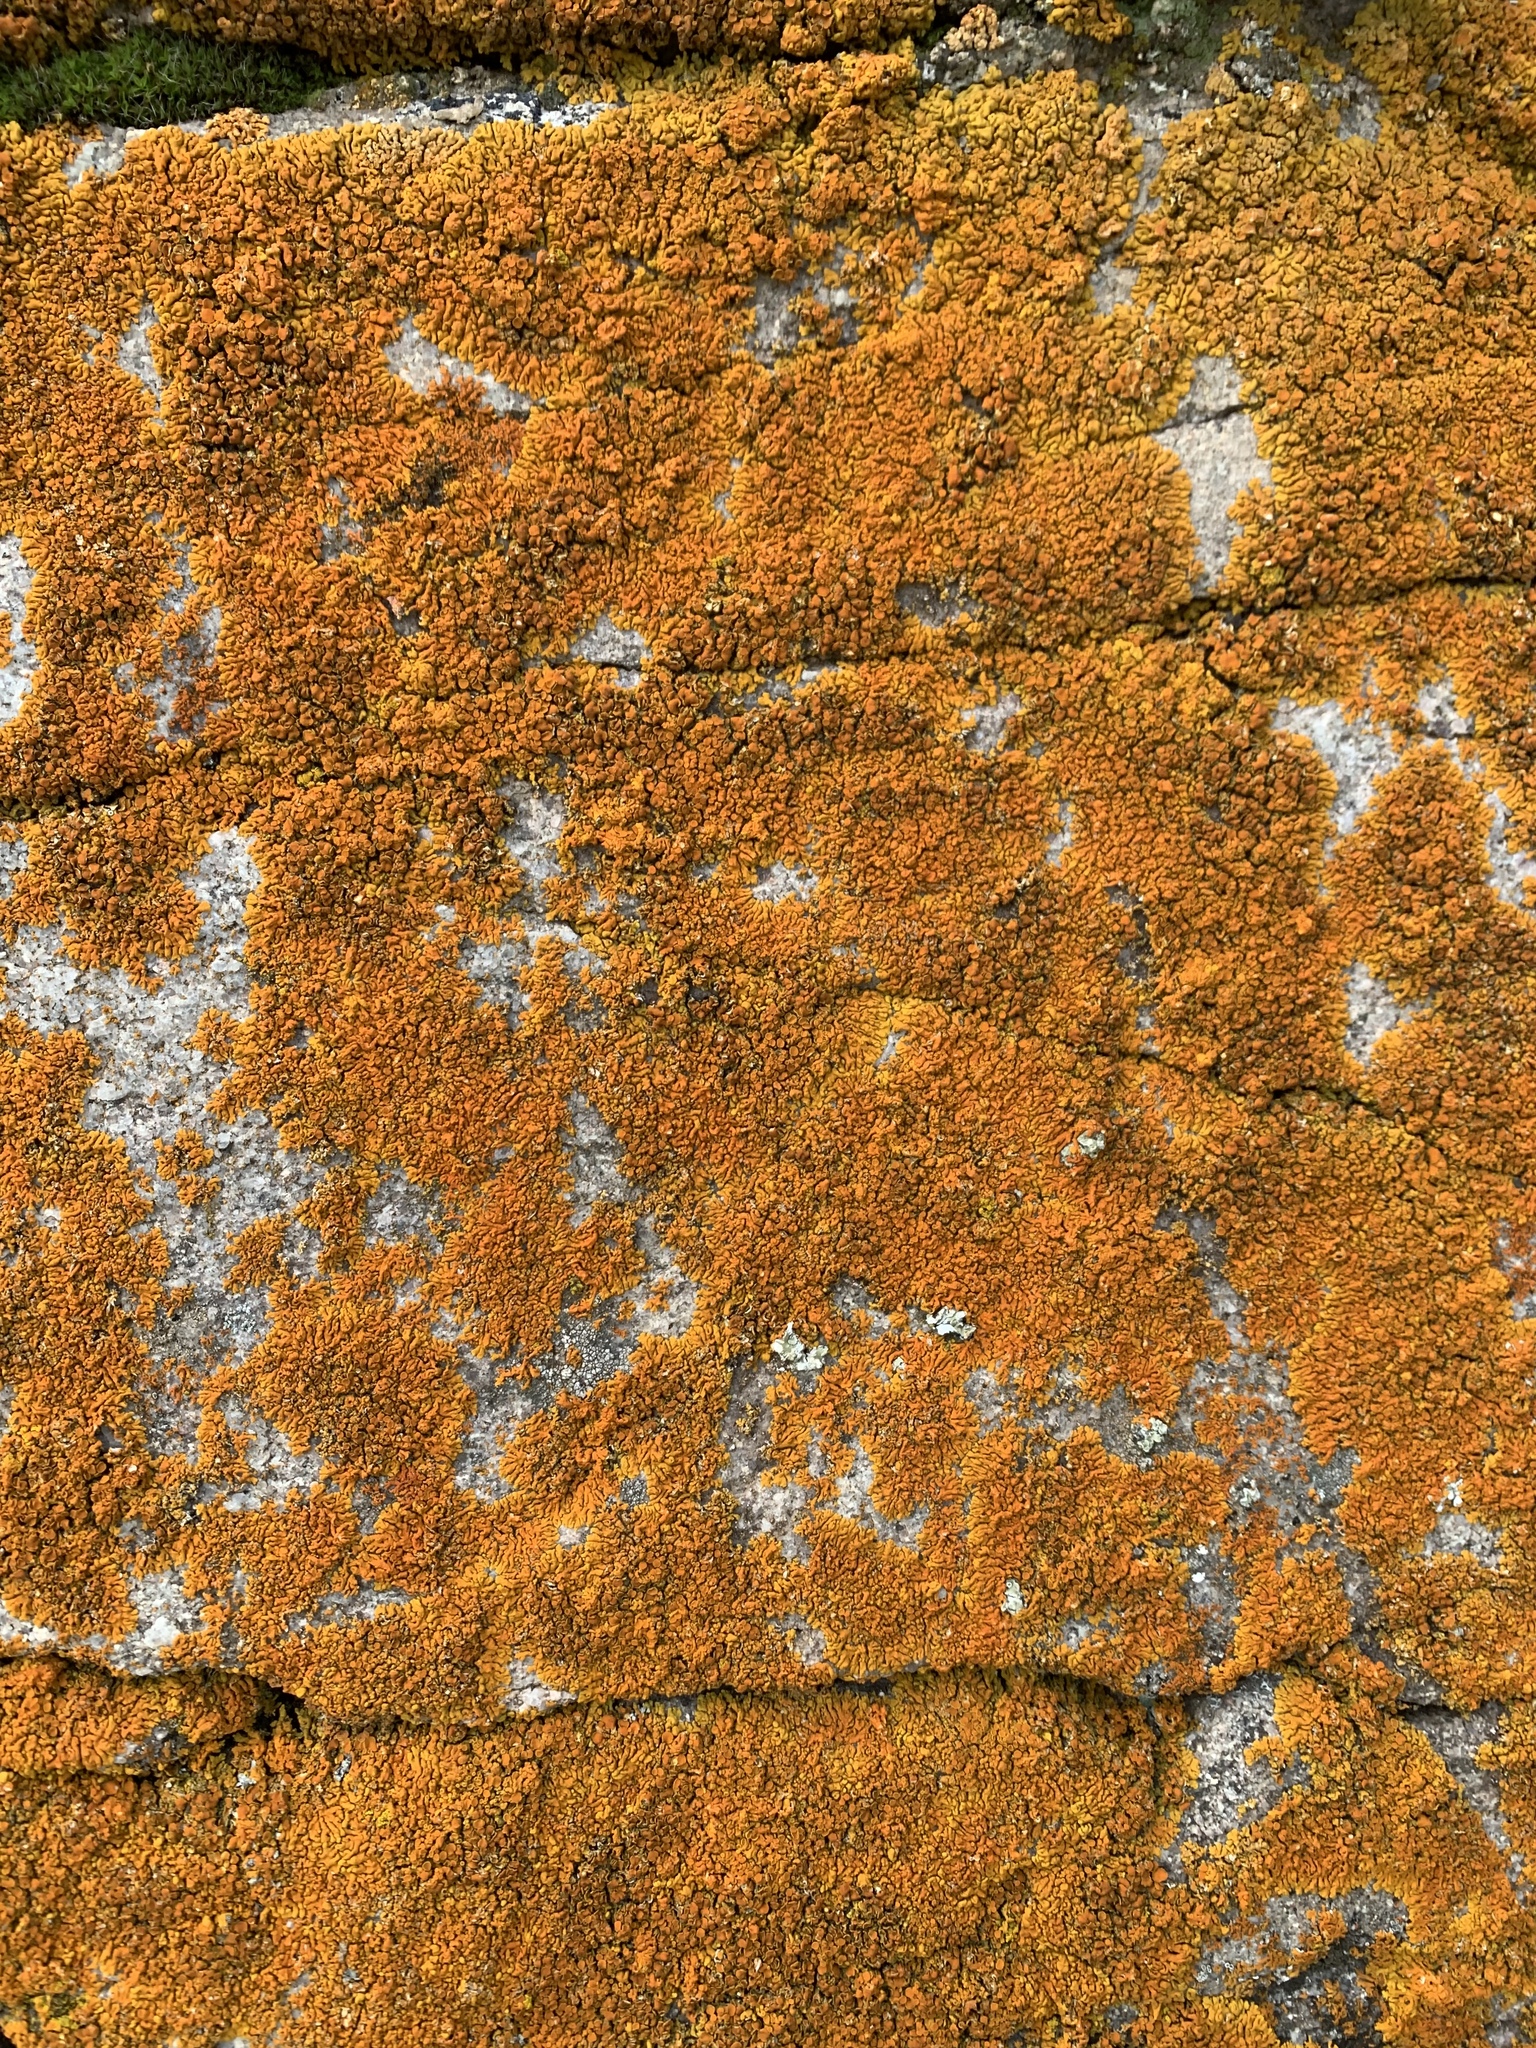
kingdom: Fungi
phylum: Ascomycota
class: Lecanoromycetes
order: Teloschistales
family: Teloschistaceae
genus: Xanthoria
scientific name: Xanthoria elegans
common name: Elegant sunburst lichen
